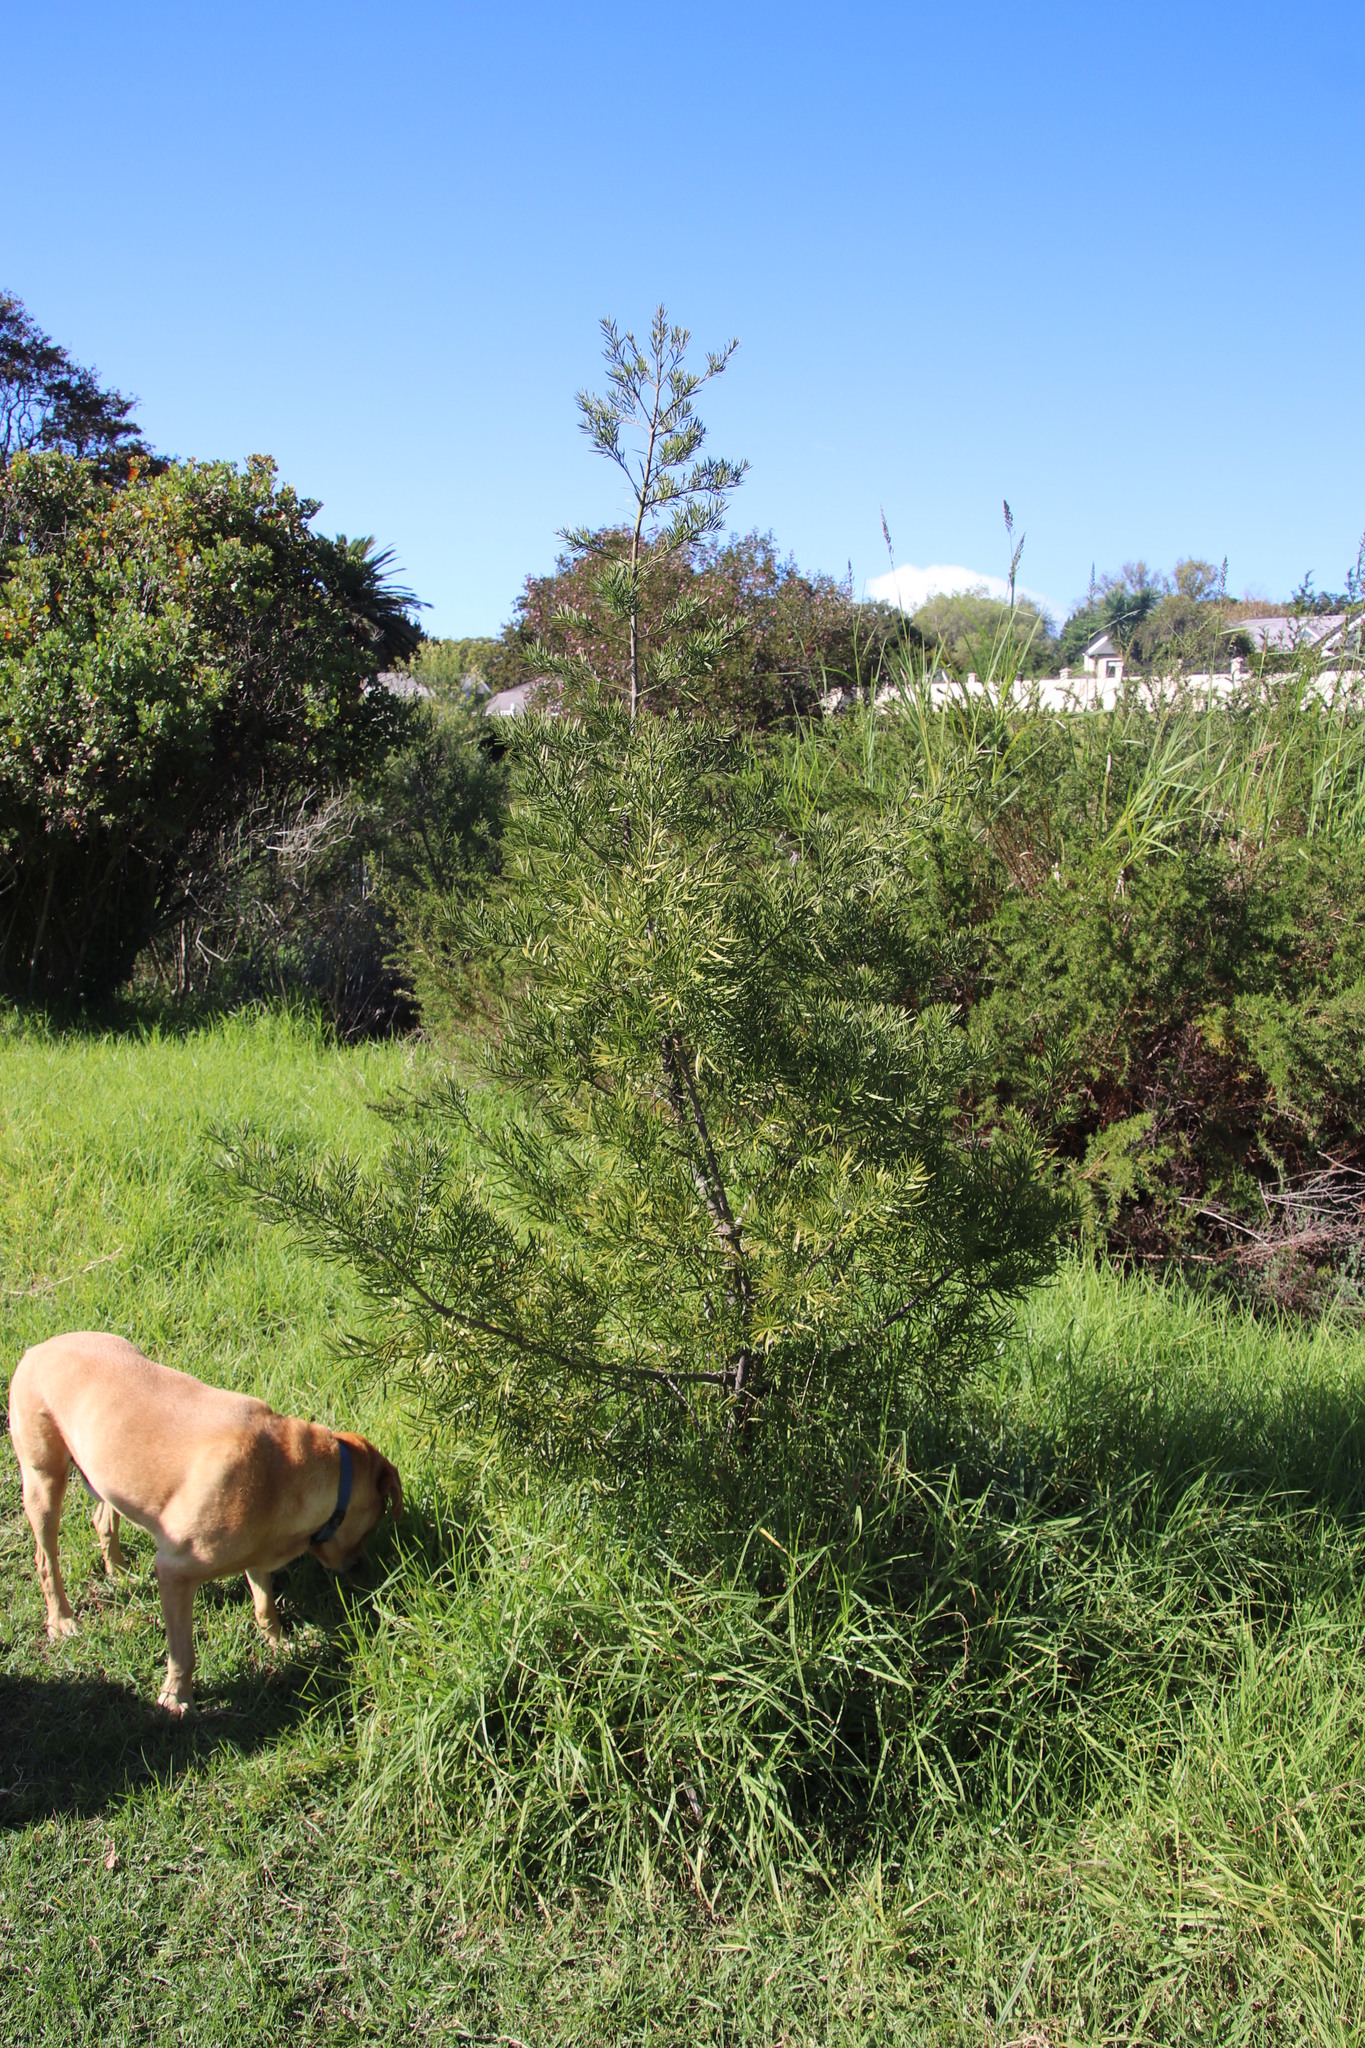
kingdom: Plantae
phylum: Tracheophyta
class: Pinopsida
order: Pinales
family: Podocarpaceae
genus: Afrocarpus
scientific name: Afrocarpus falcatus
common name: Bastard yellowwood
